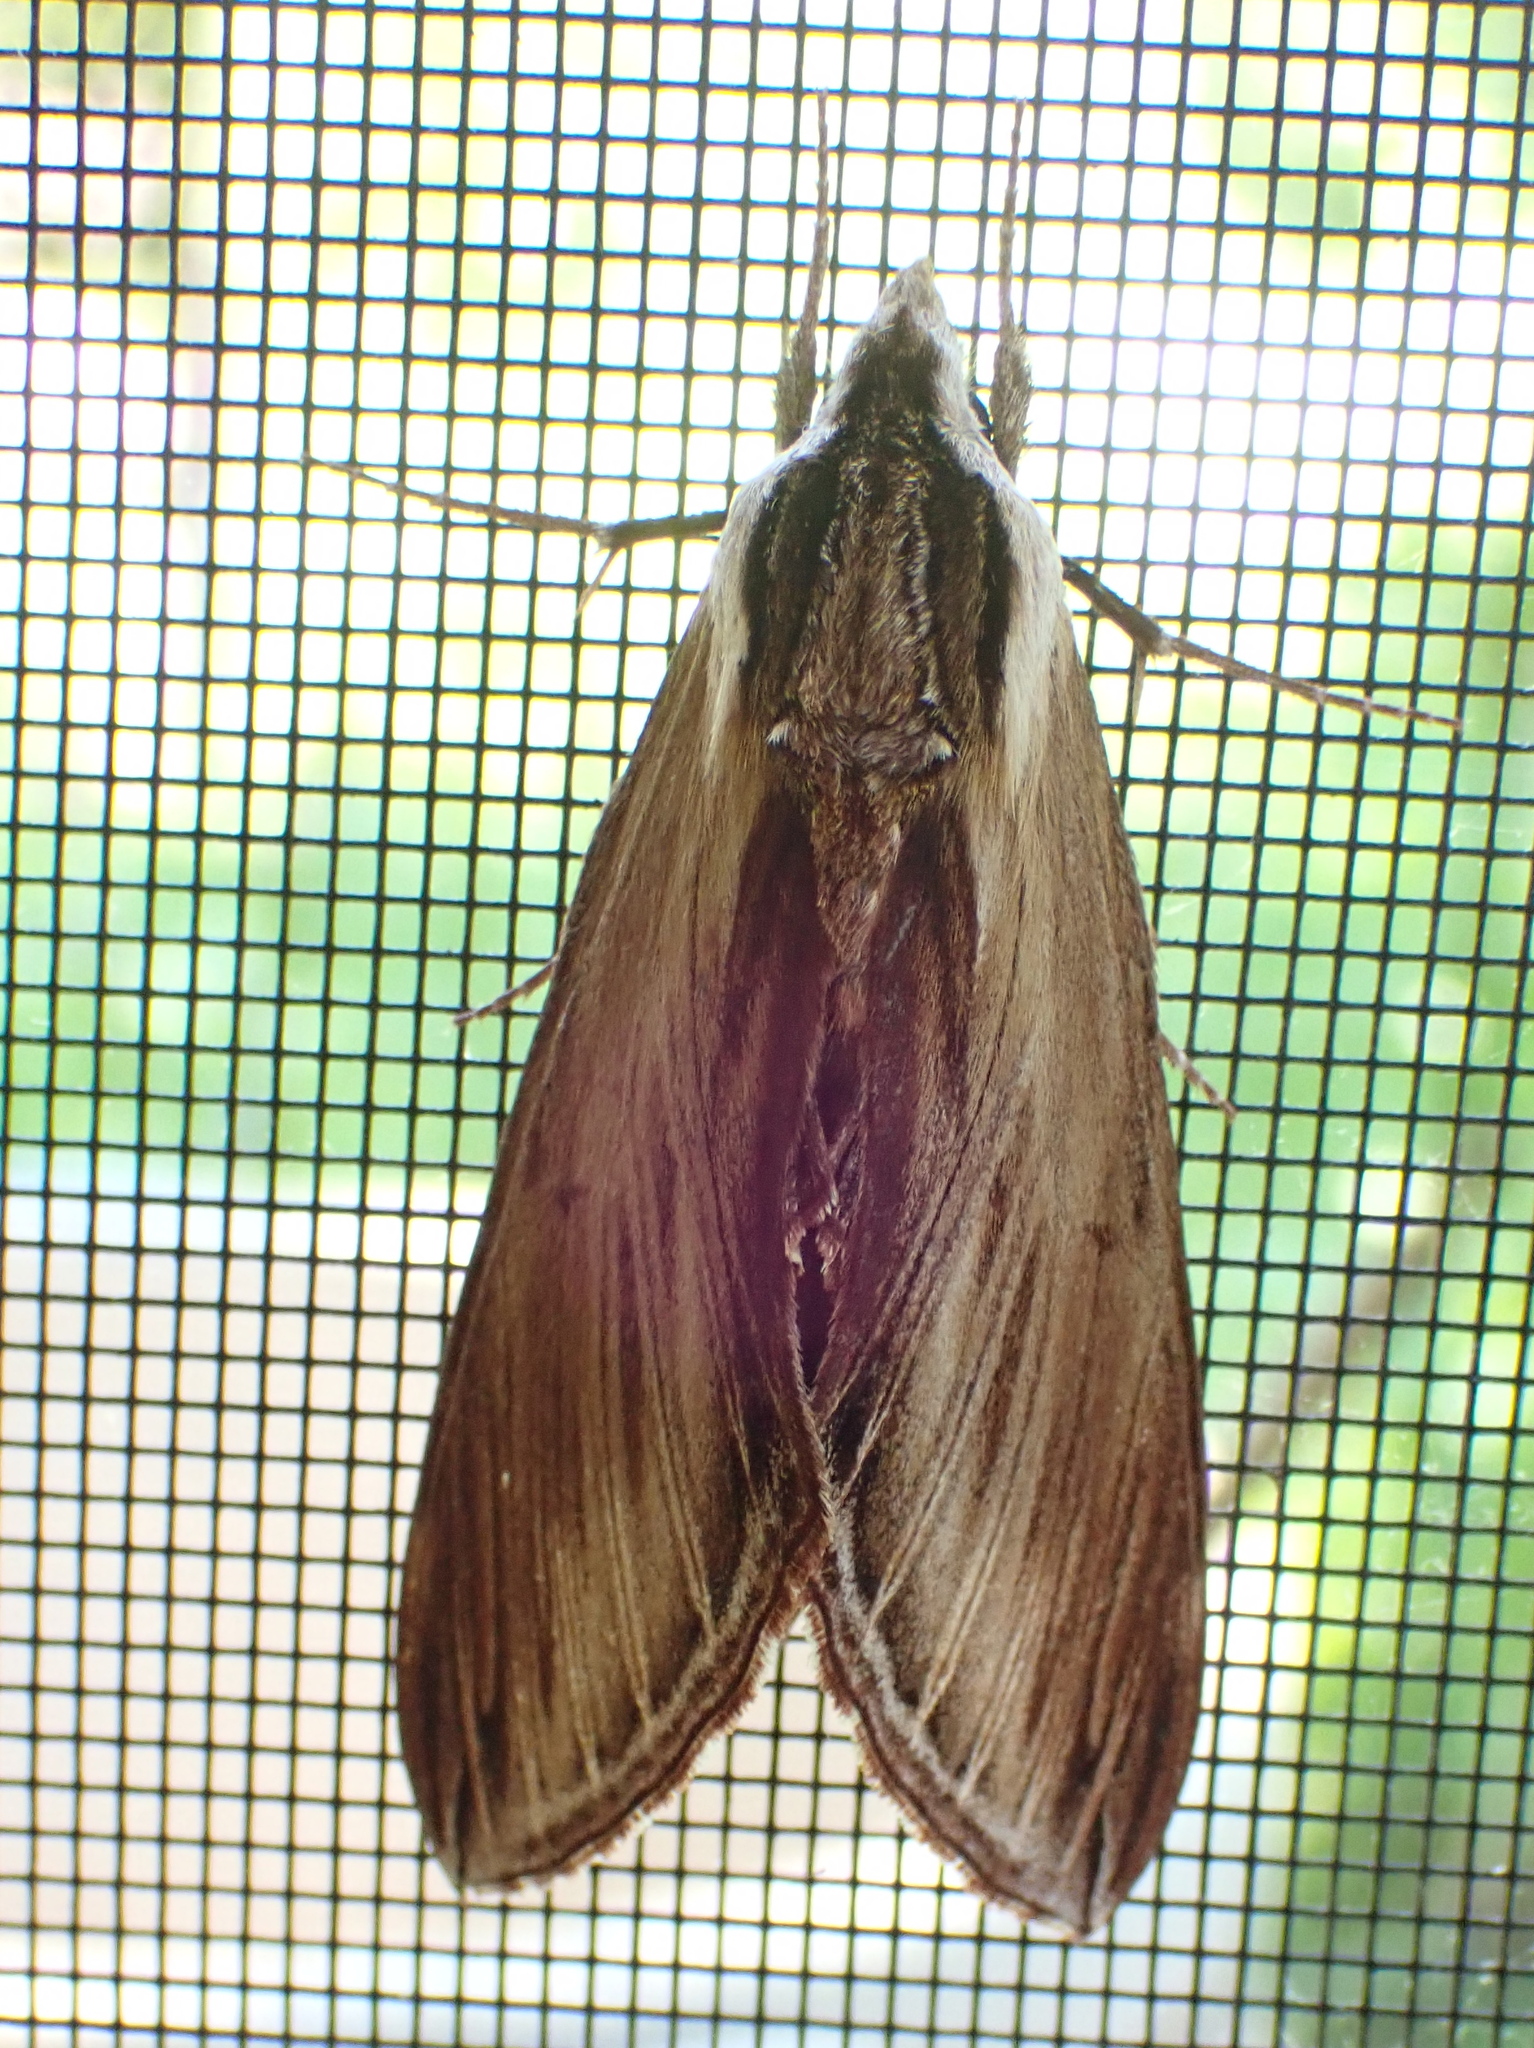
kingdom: Animalia
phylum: Arthropoda
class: Insecta
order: Lepidoptera
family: Sphingidae
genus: Sphinx
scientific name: Sphinx kalmiae
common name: Laurel sphinx
